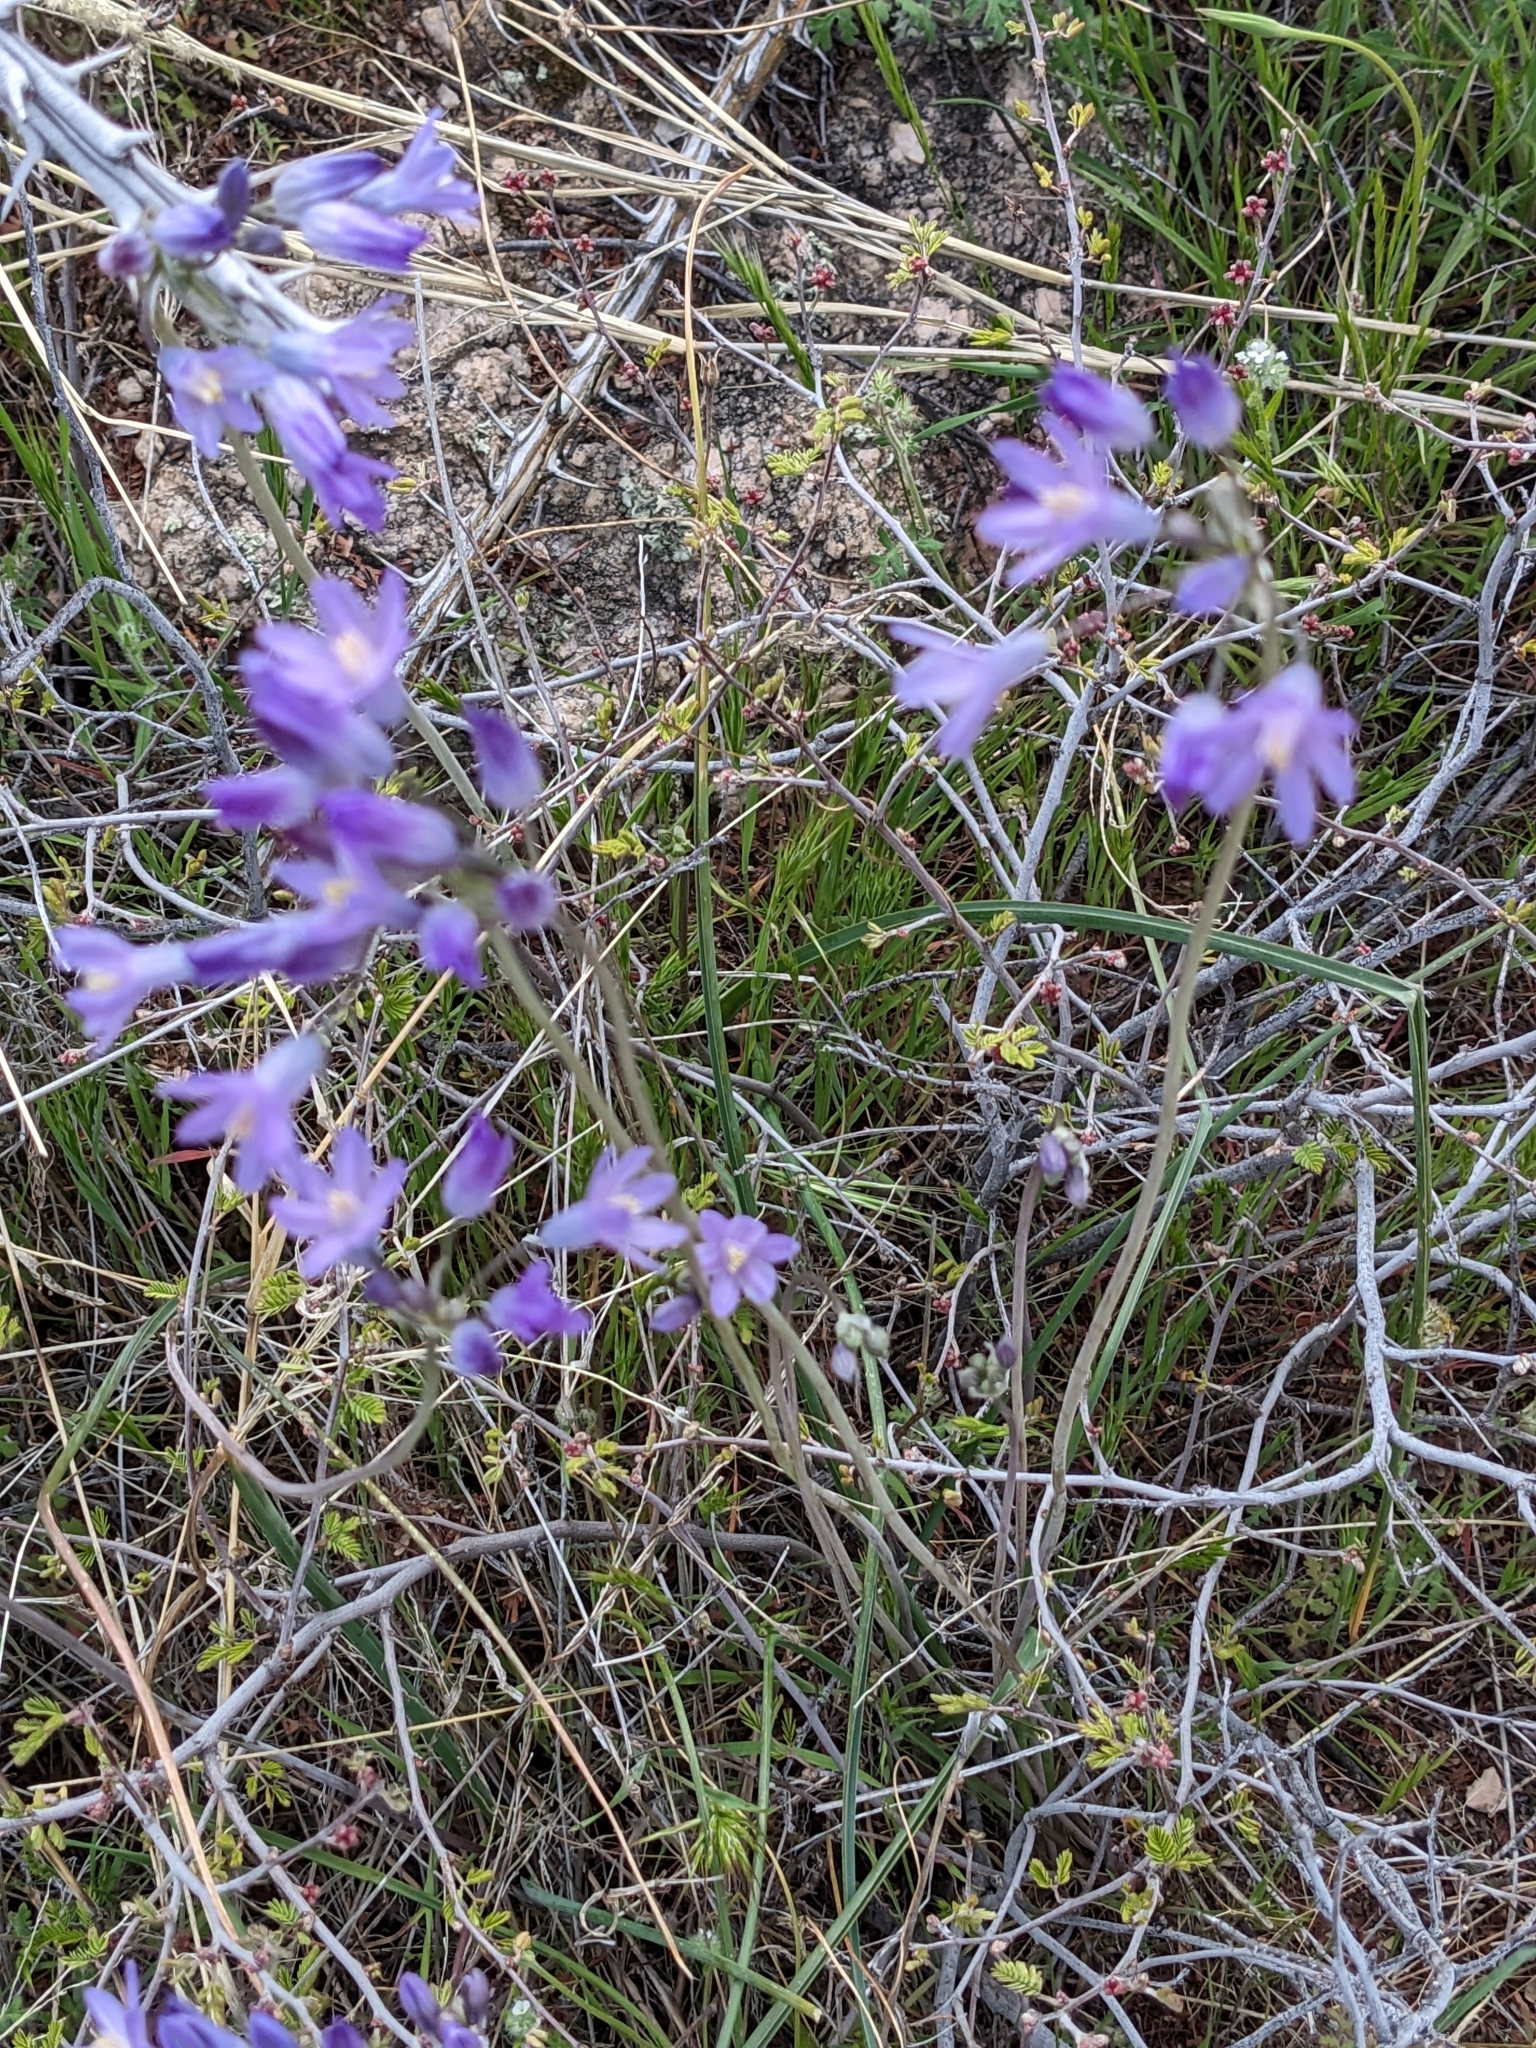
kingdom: Plantae
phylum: Tracheophyta
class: Liliopsida
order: Asparagales
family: Asparagaceae
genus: Dipterostemon
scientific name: Dipterostemon capitatus
